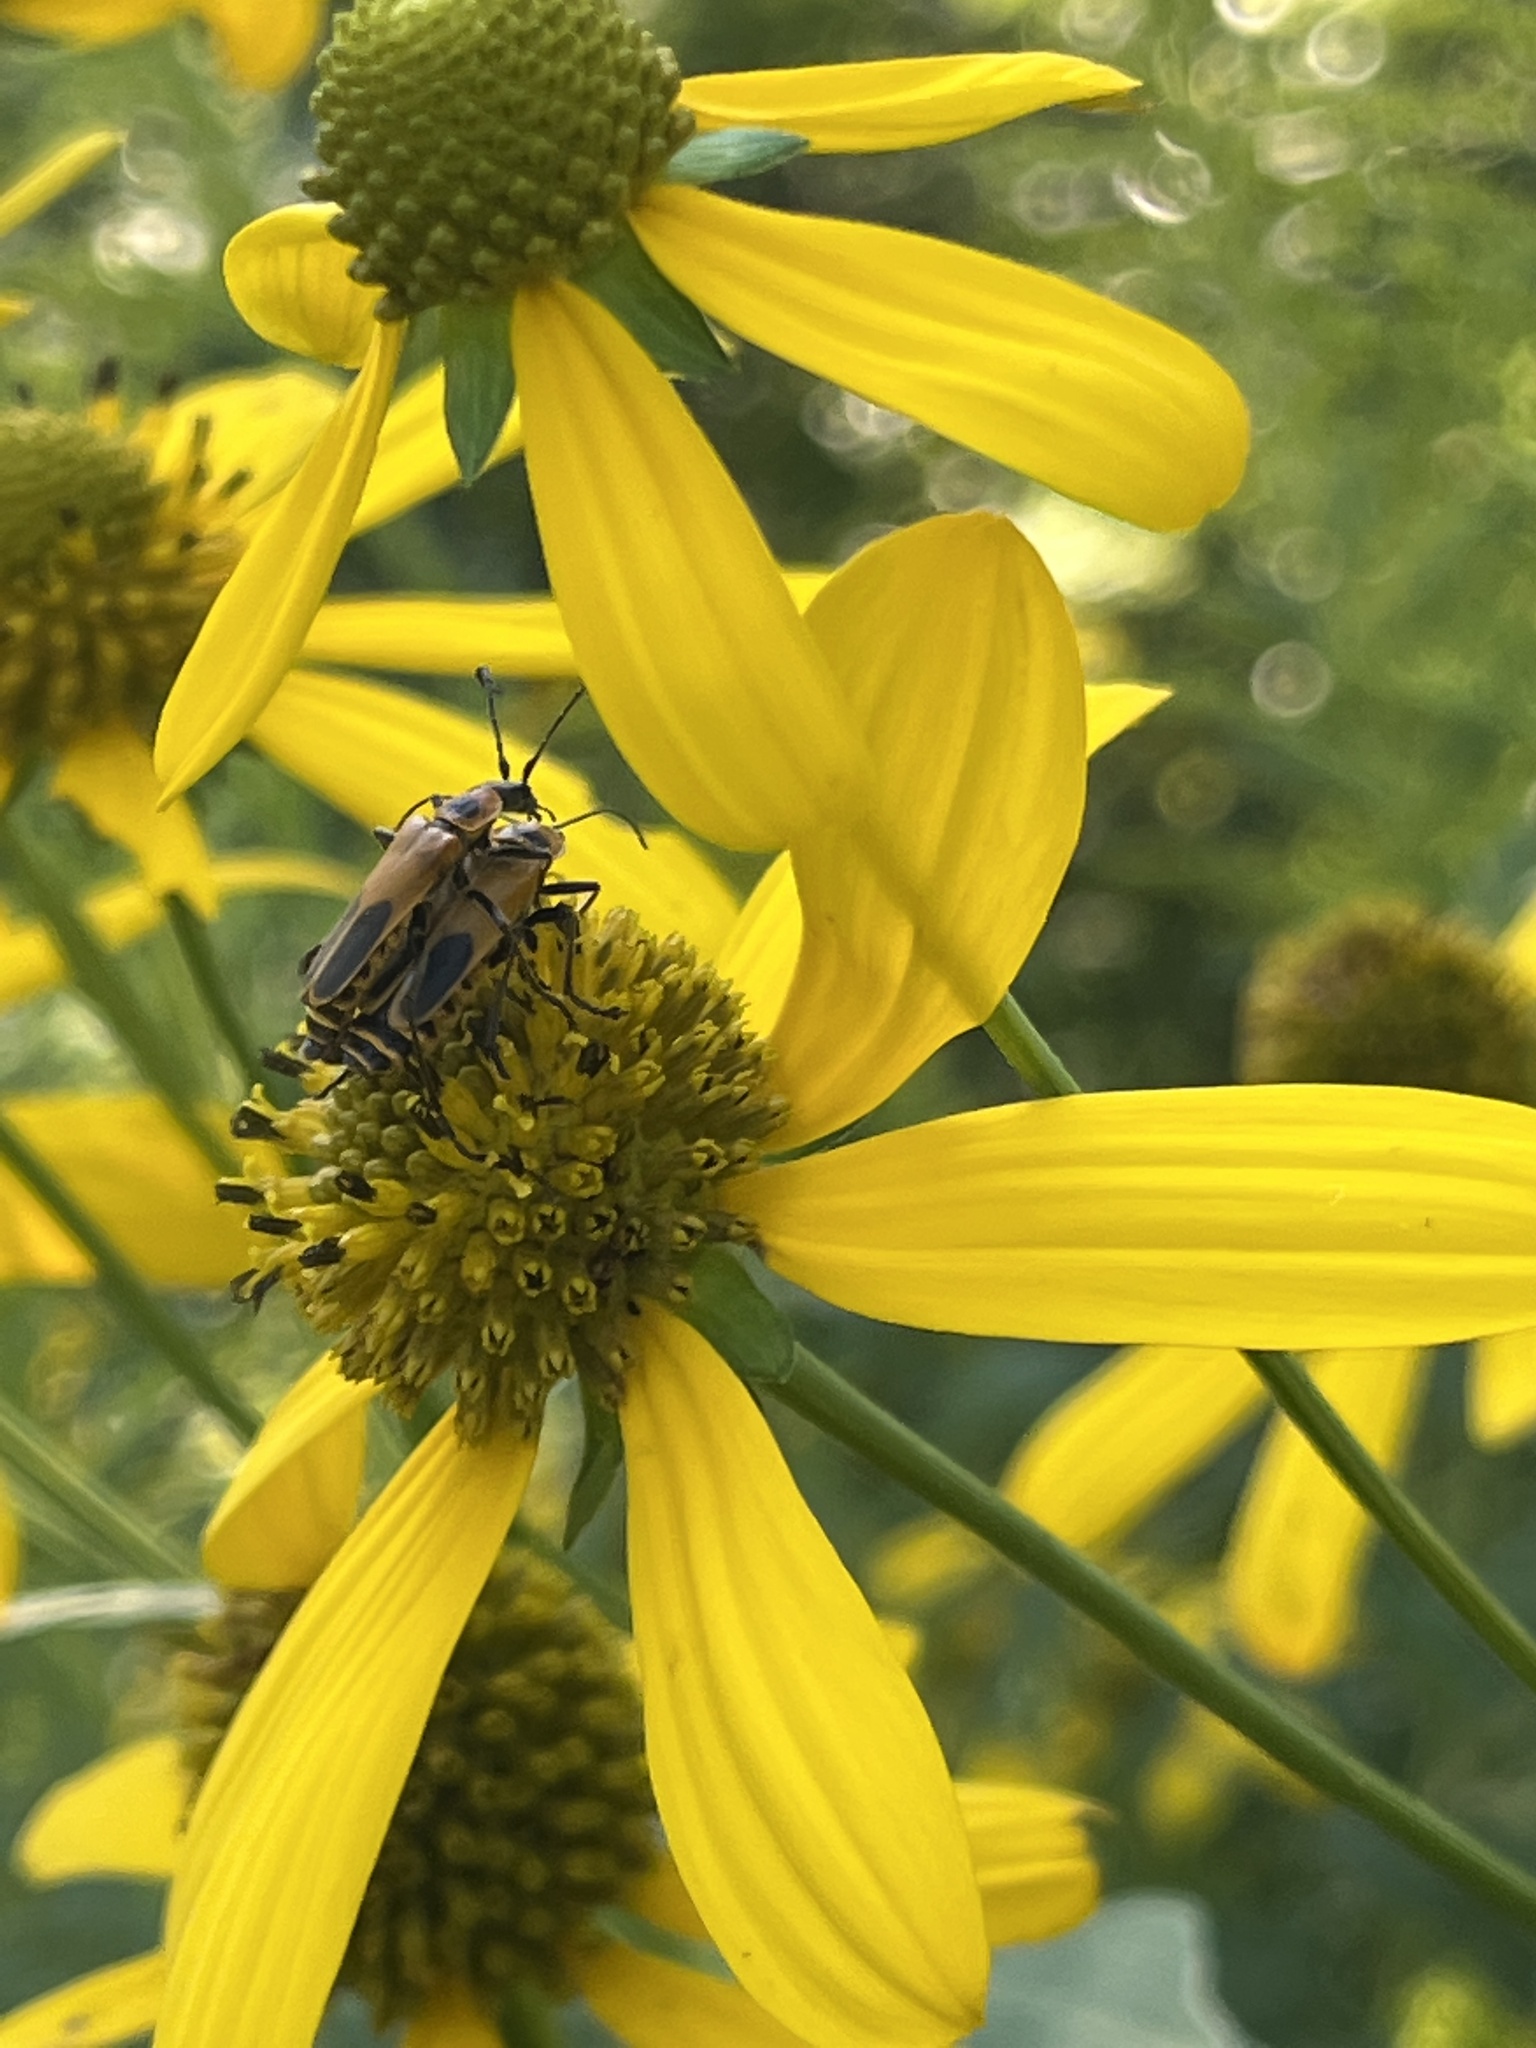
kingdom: Animalia
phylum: Arthropoda
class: Insecta
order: Coleoptera
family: Cantharidae
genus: Chauliognathus
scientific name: Chauliognathus pensylvanicus
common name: Goldenrod soldier beetle
